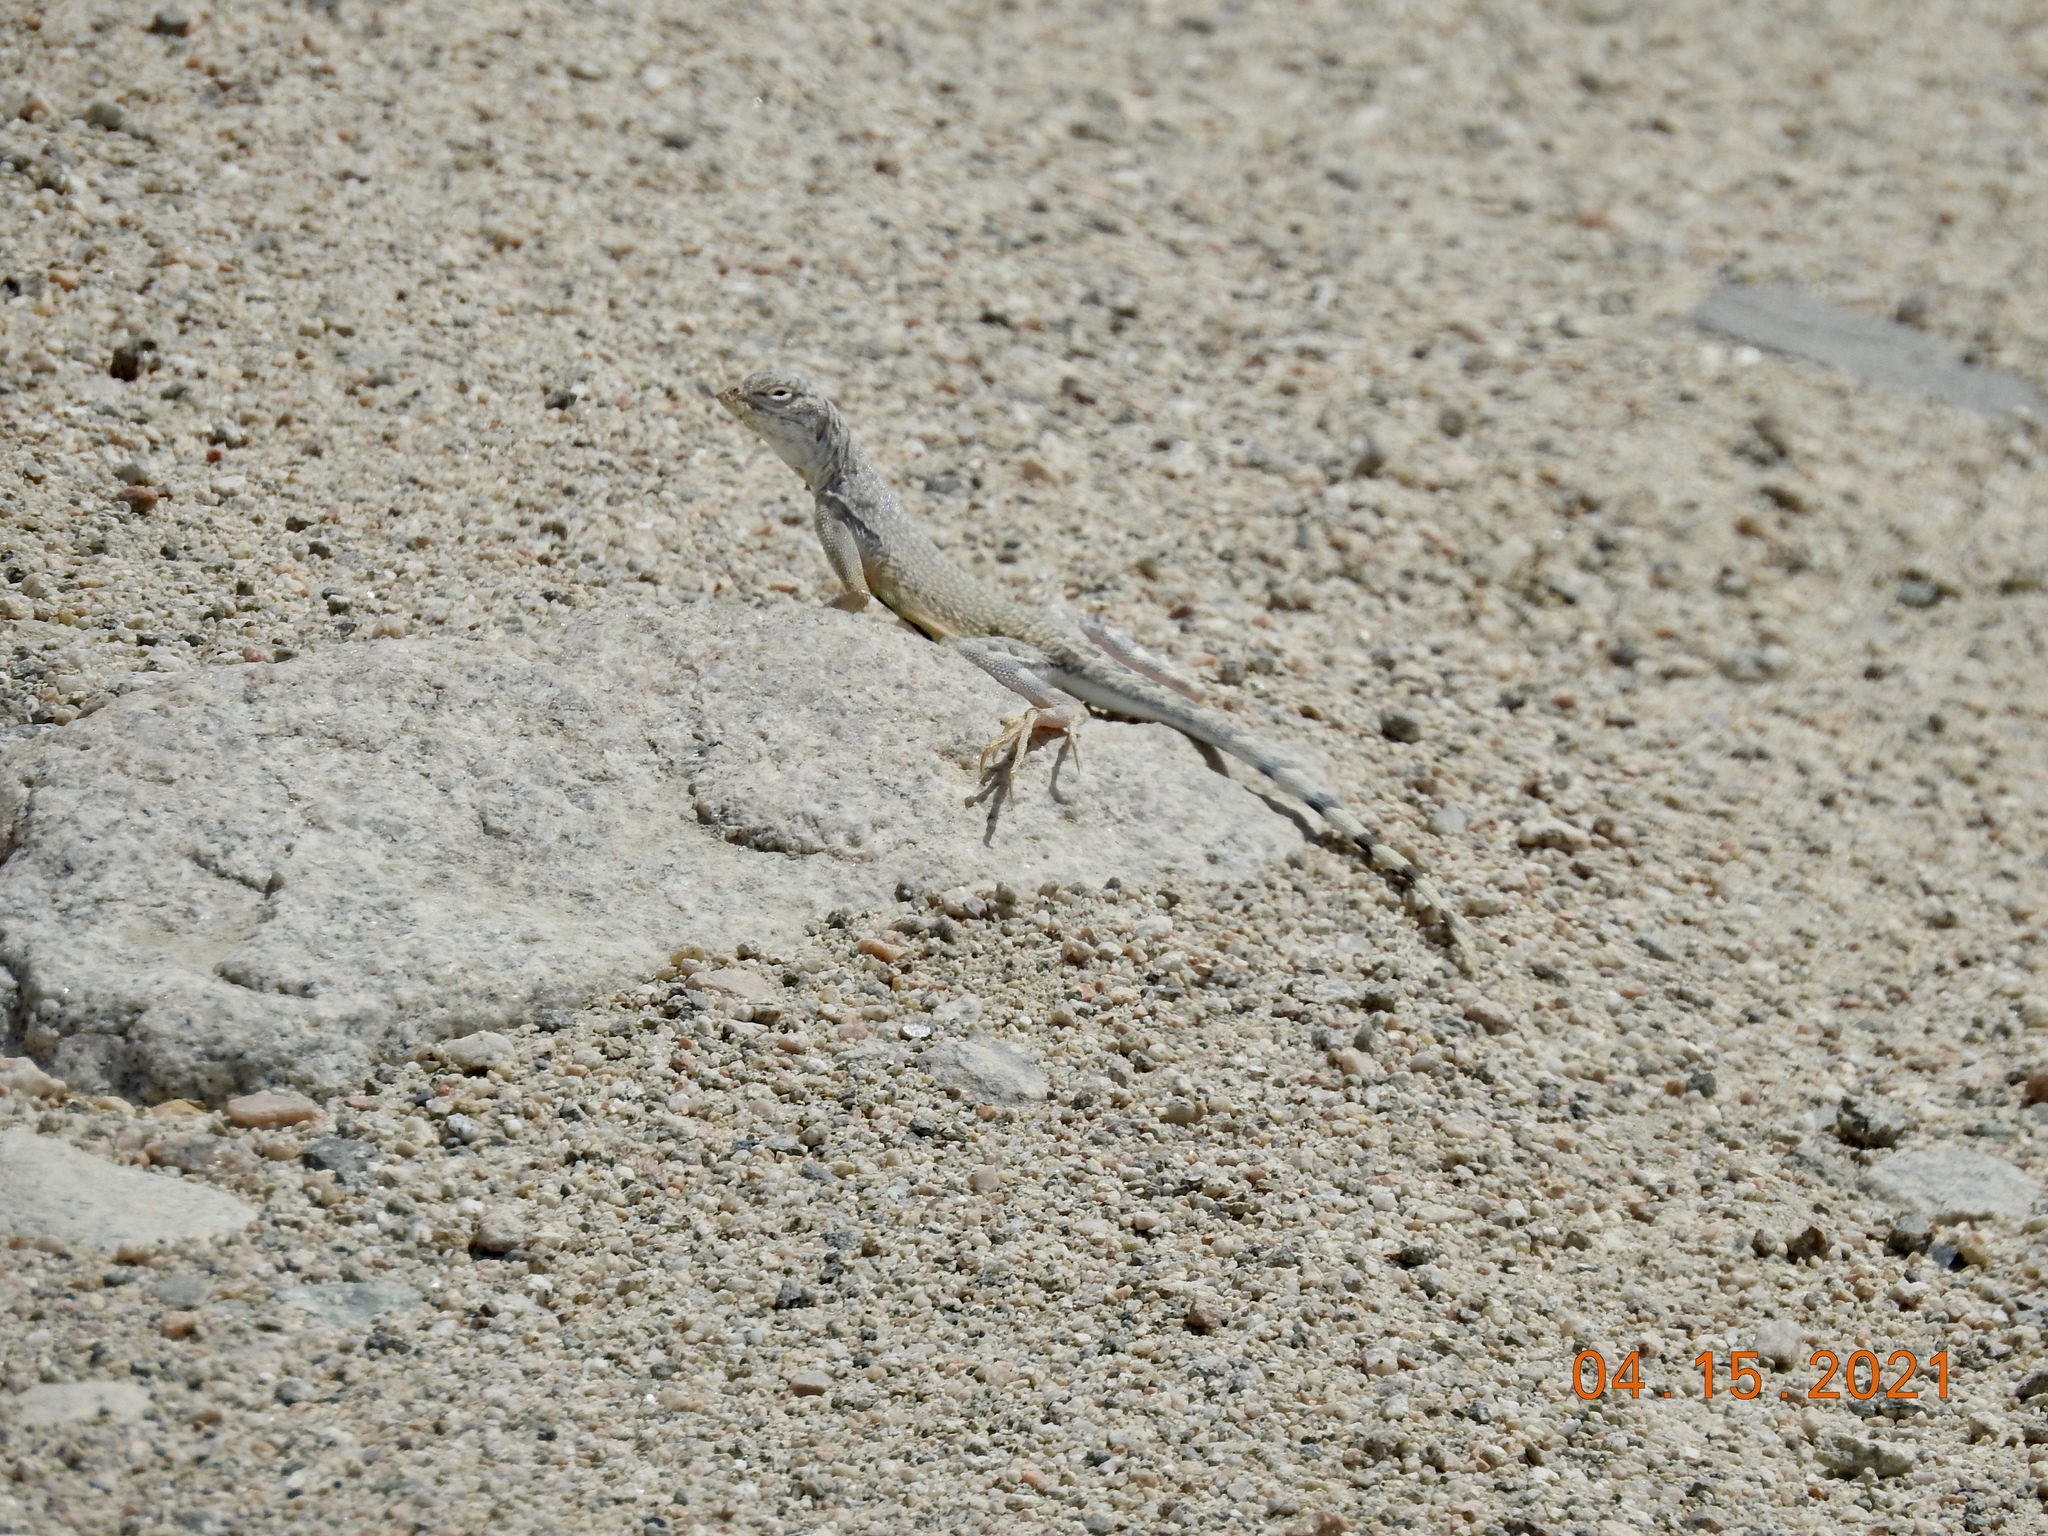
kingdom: Animalia
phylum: Chordata
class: Squamata
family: Phrynosomatidae
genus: Callisaurus
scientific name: Callisaurus draconoides
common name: Zebra-tailed lizard
